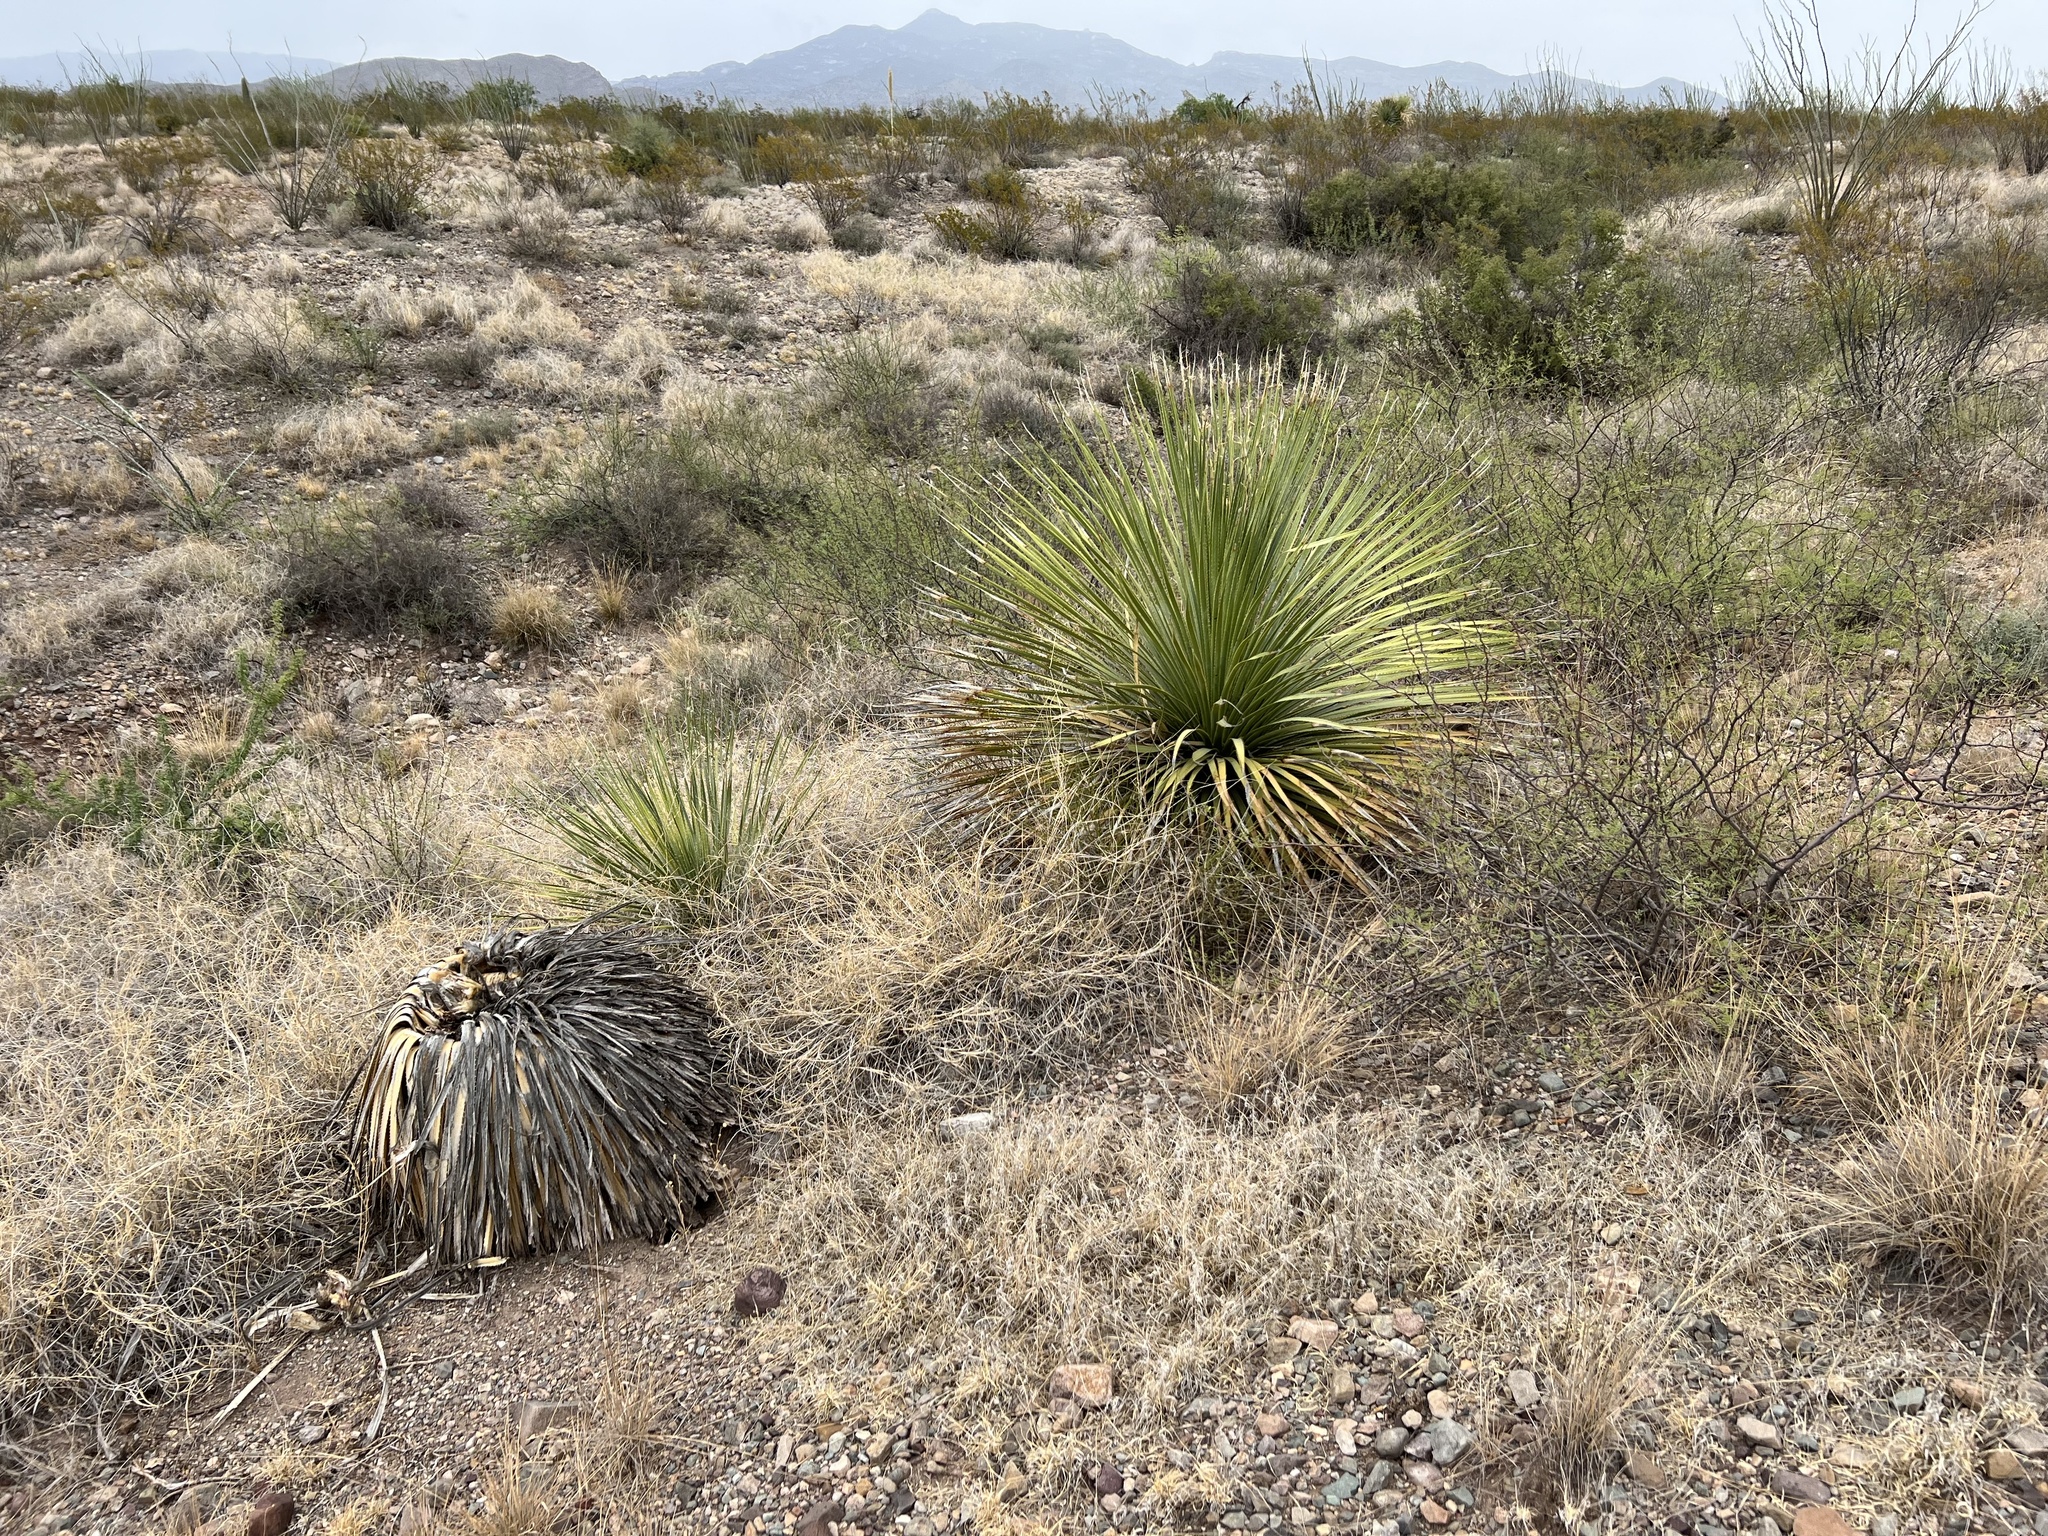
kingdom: Plantae
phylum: Tracheophyta
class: Liliopsida
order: Asparagales
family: Asparagaceae
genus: Dasylirion
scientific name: Dasylirion wheeleri
